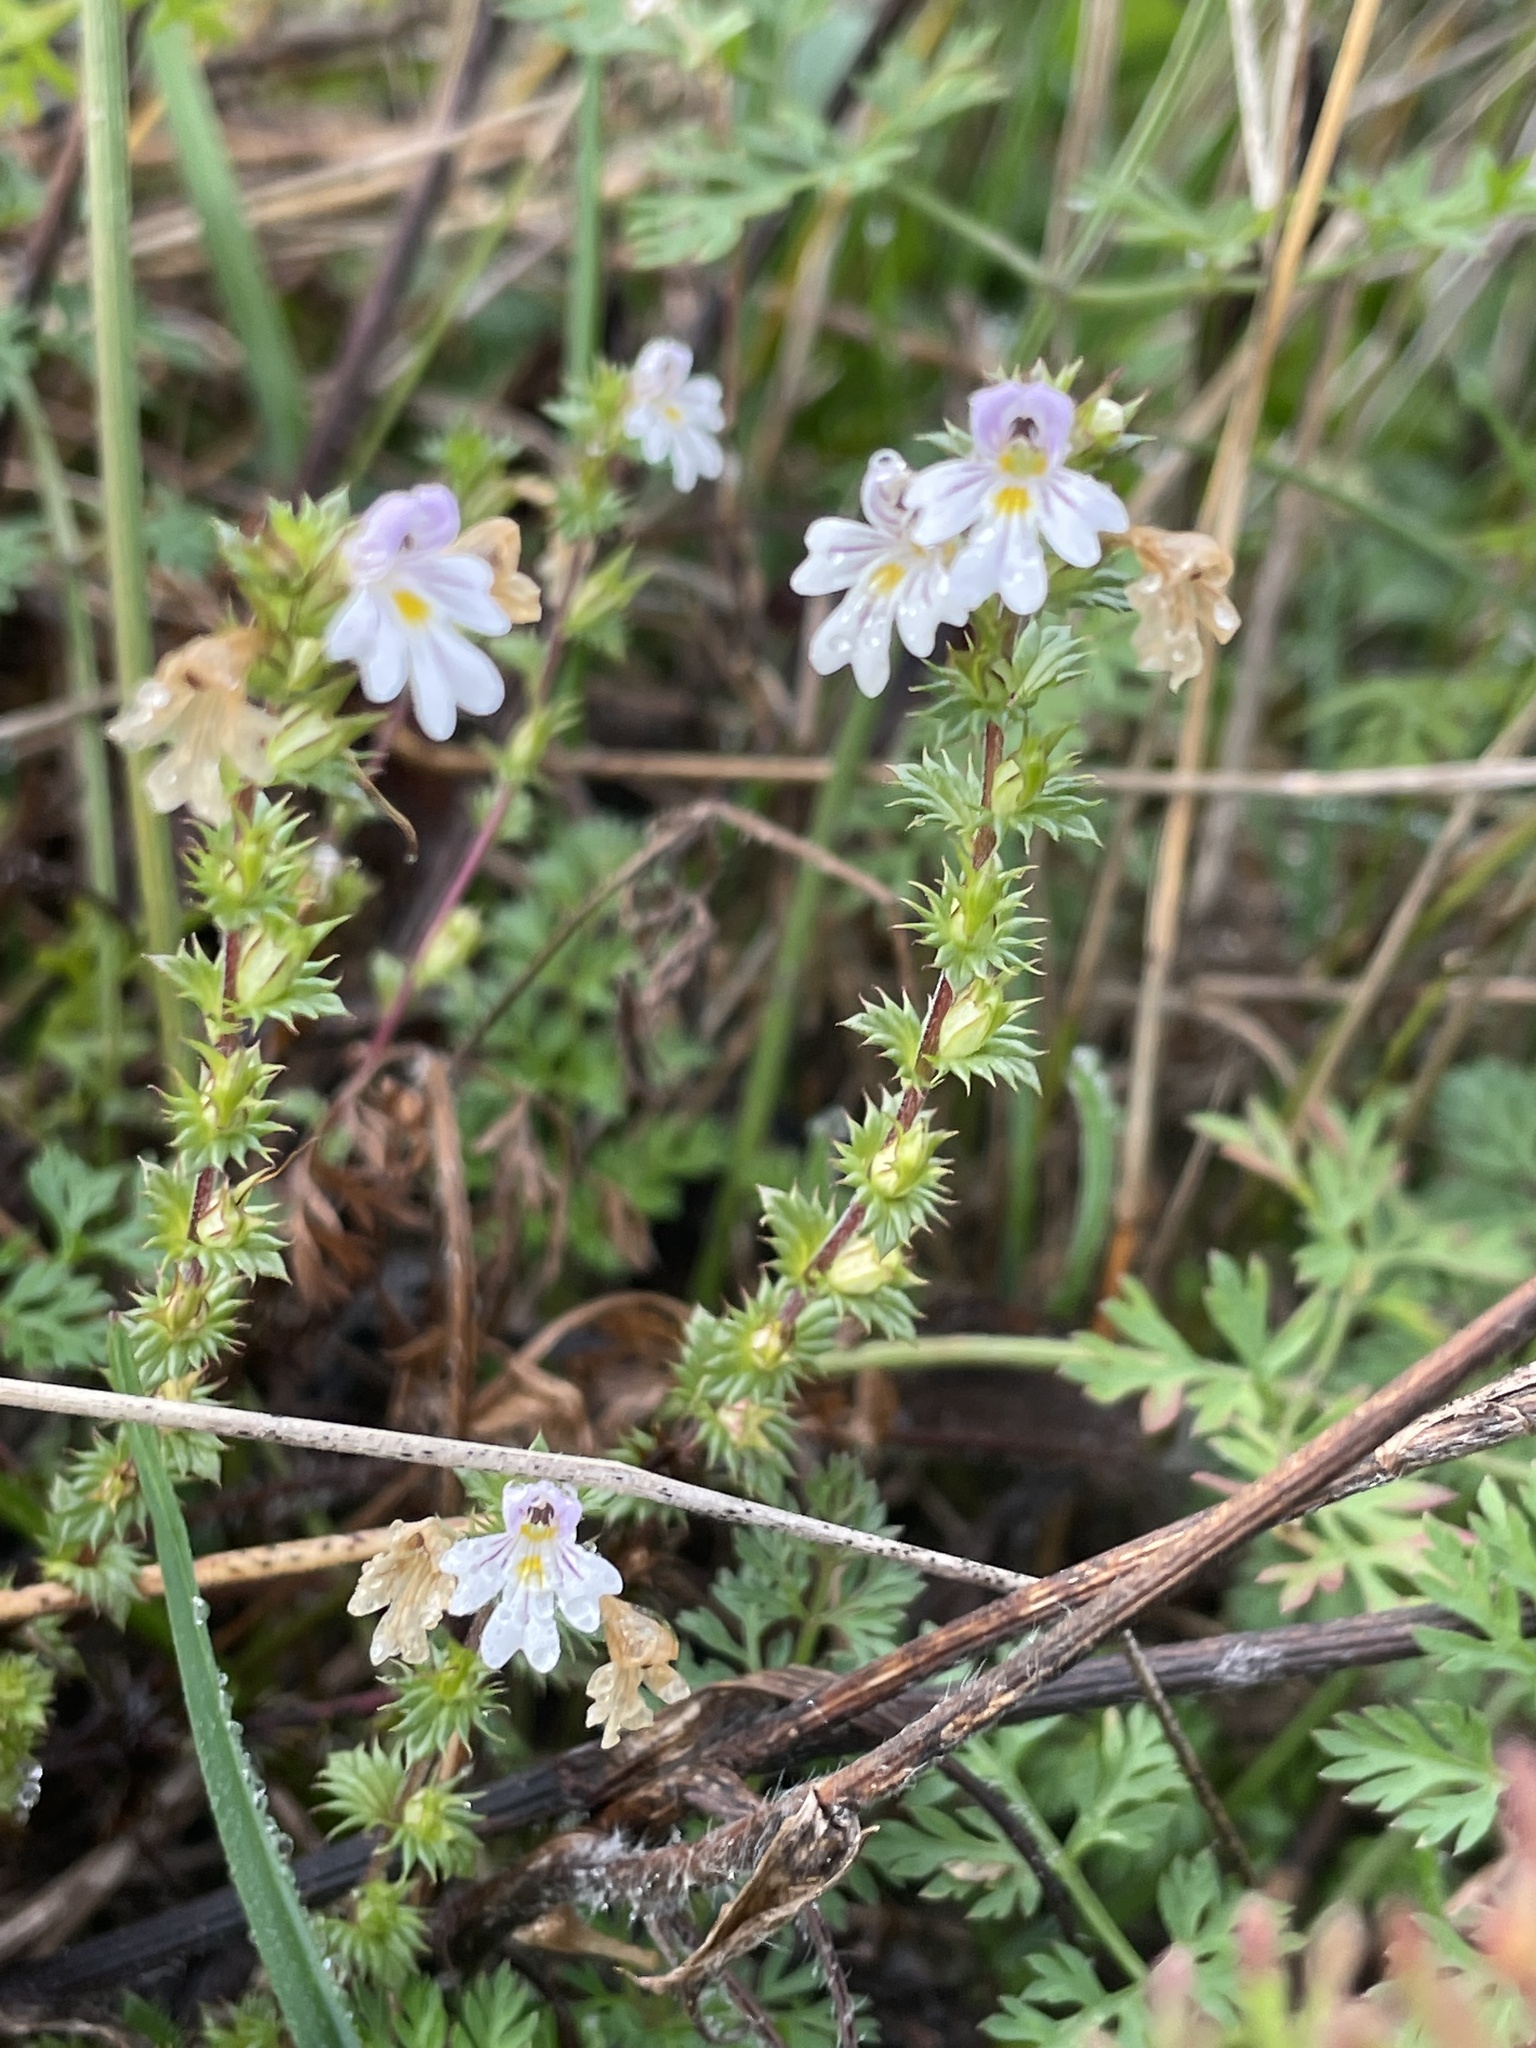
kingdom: Plantae
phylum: Tracheophyta
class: Magnoliopsida
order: Lamiales
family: Orobanchaceae
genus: Euphrasia
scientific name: Euphrasia nemorosa
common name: Common eyebright
